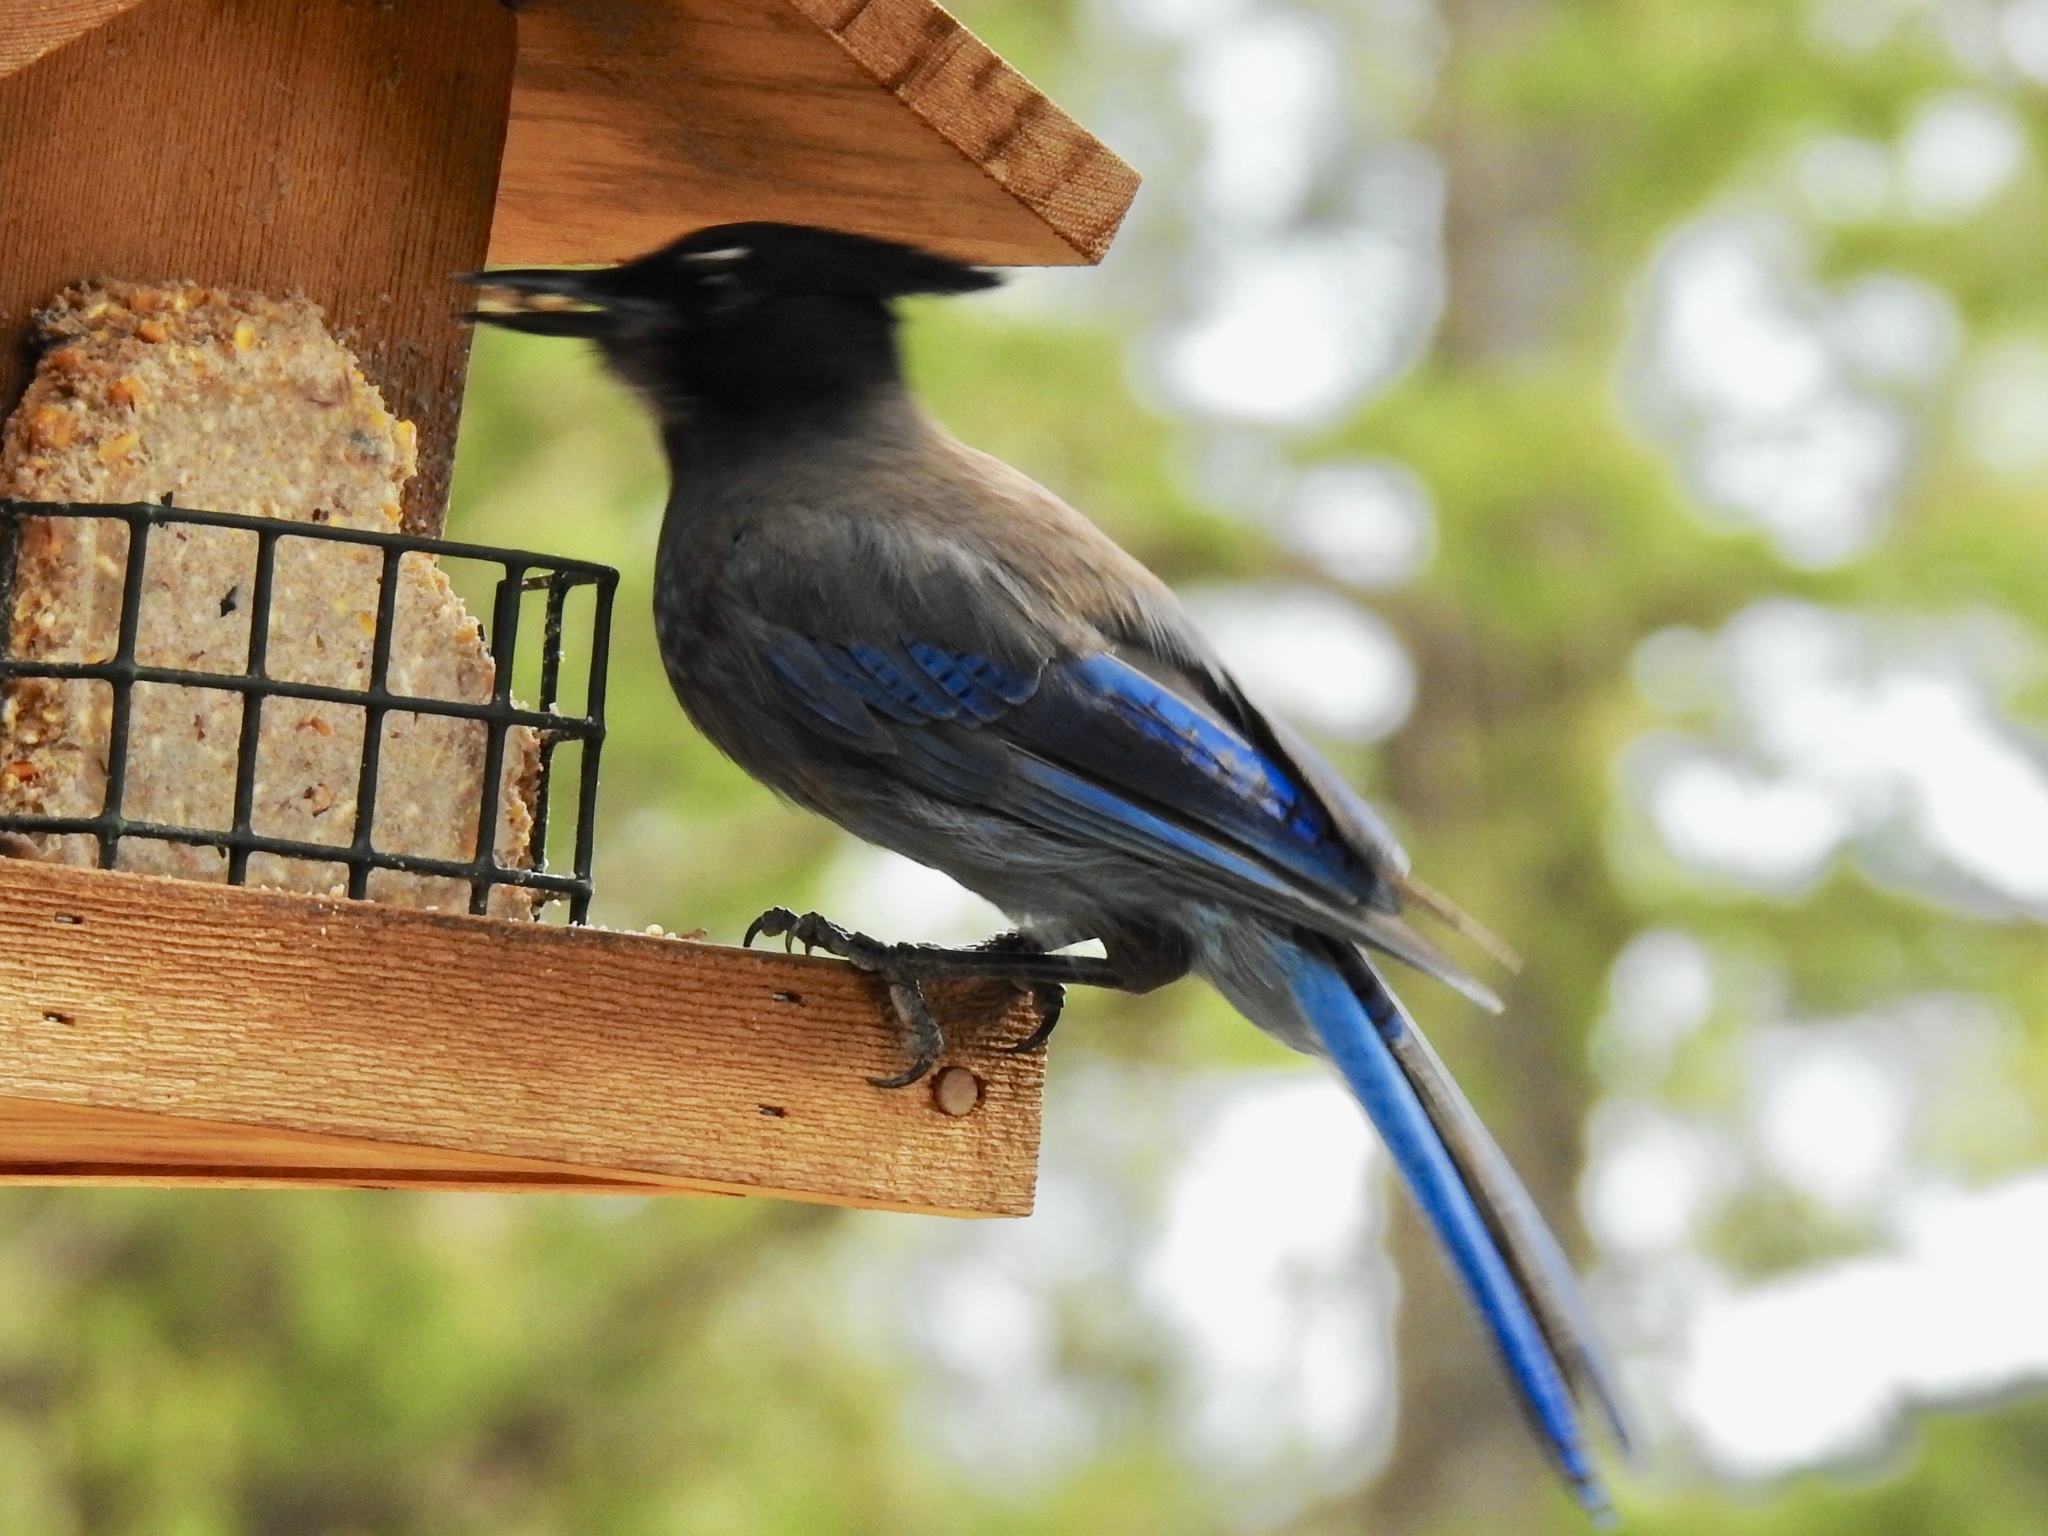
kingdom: Animalia
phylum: Chordata
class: Aves
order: Passeriformes
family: Corvidae
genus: Cyanocitta
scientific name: Cyanocitta stelleri
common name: Steller's jay
